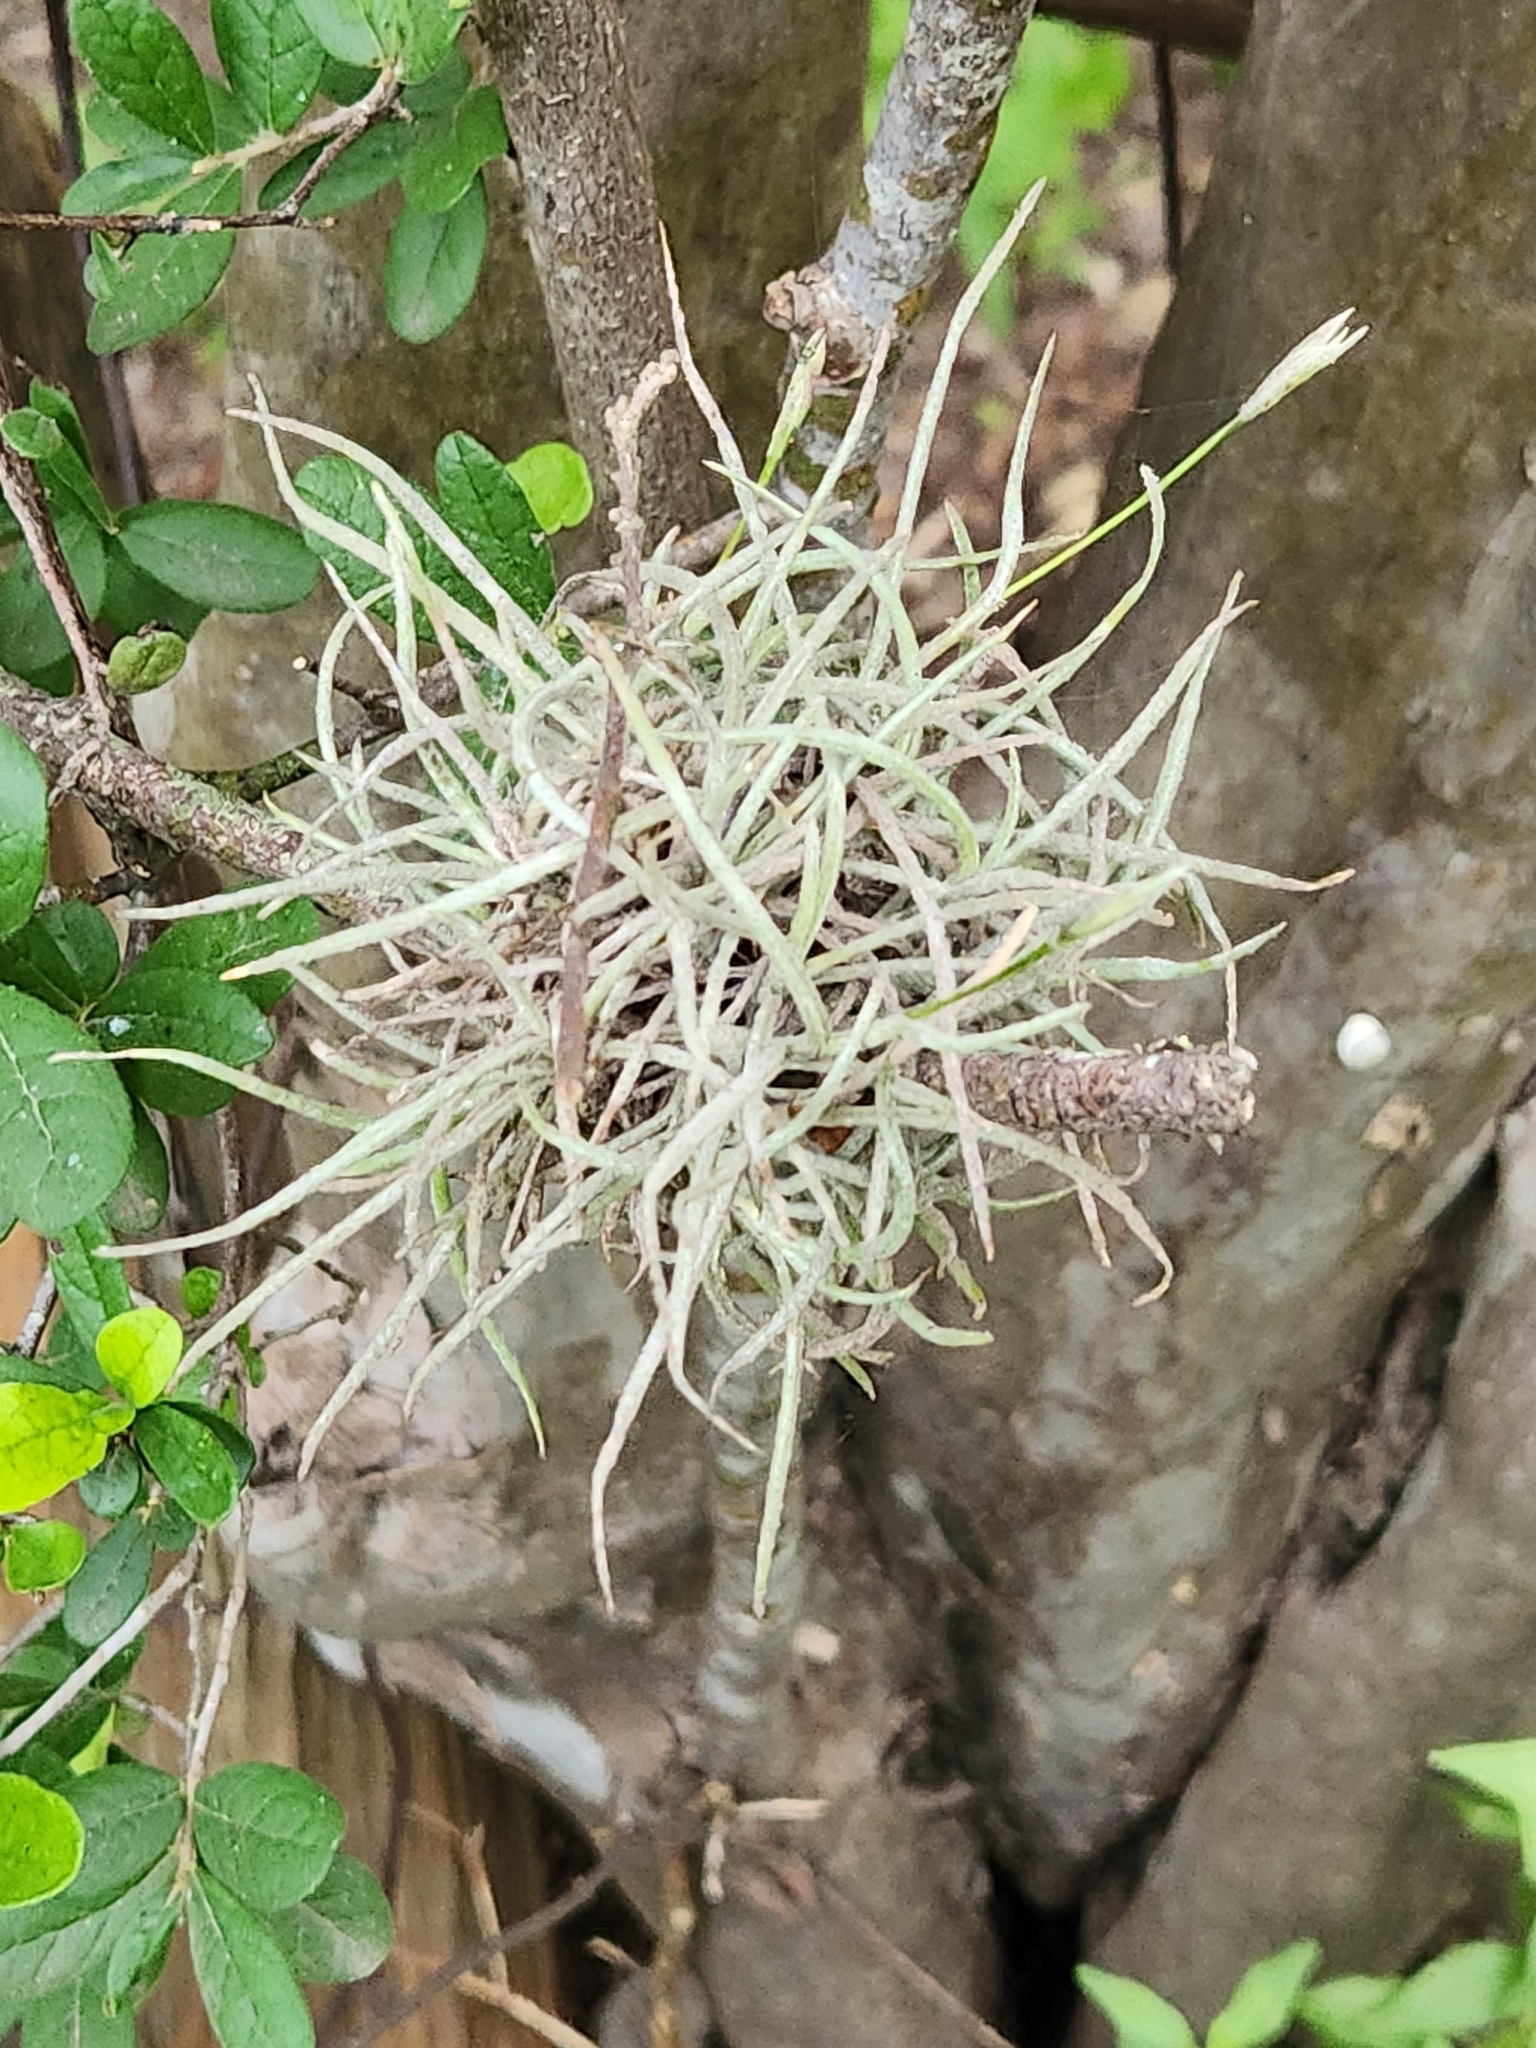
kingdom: Plantae
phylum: Tracheophyta
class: Liliopsida
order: Poales
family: Bromeliaceae
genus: Tillandsia
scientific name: Tillandsia recurvata
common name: Small ballmoss
